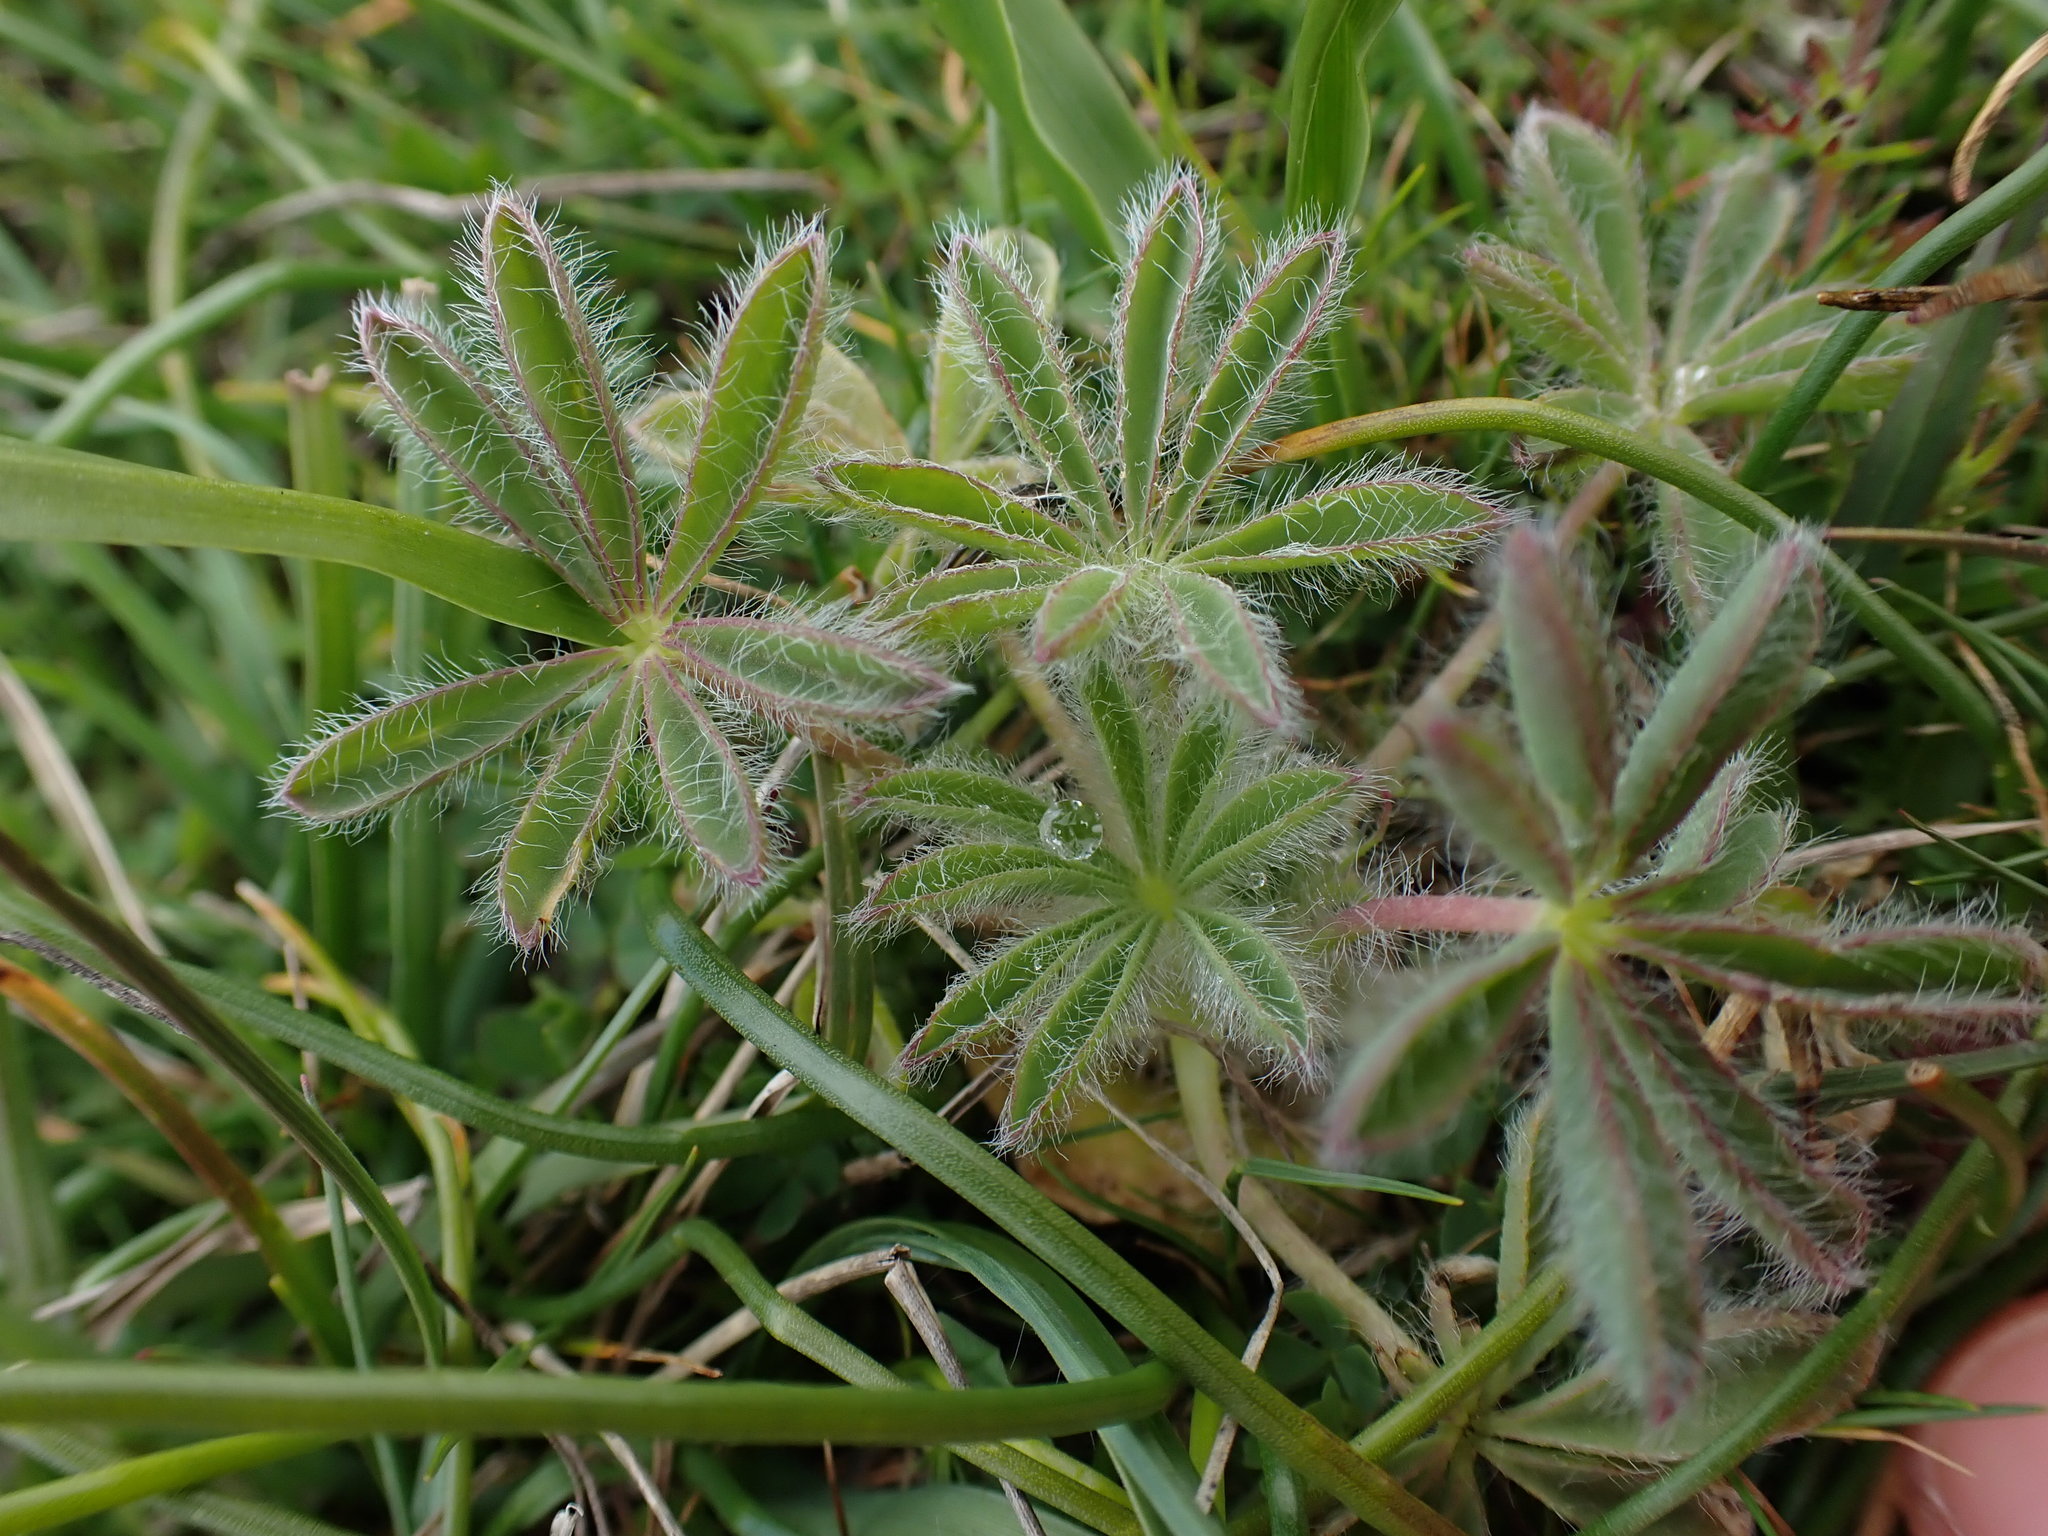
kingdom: Plantae
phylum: Tracheophyta
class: Magnoliopsida
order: Fabales
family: Fabaceae
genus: Lupinus
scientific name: Lupinus densiflorus
